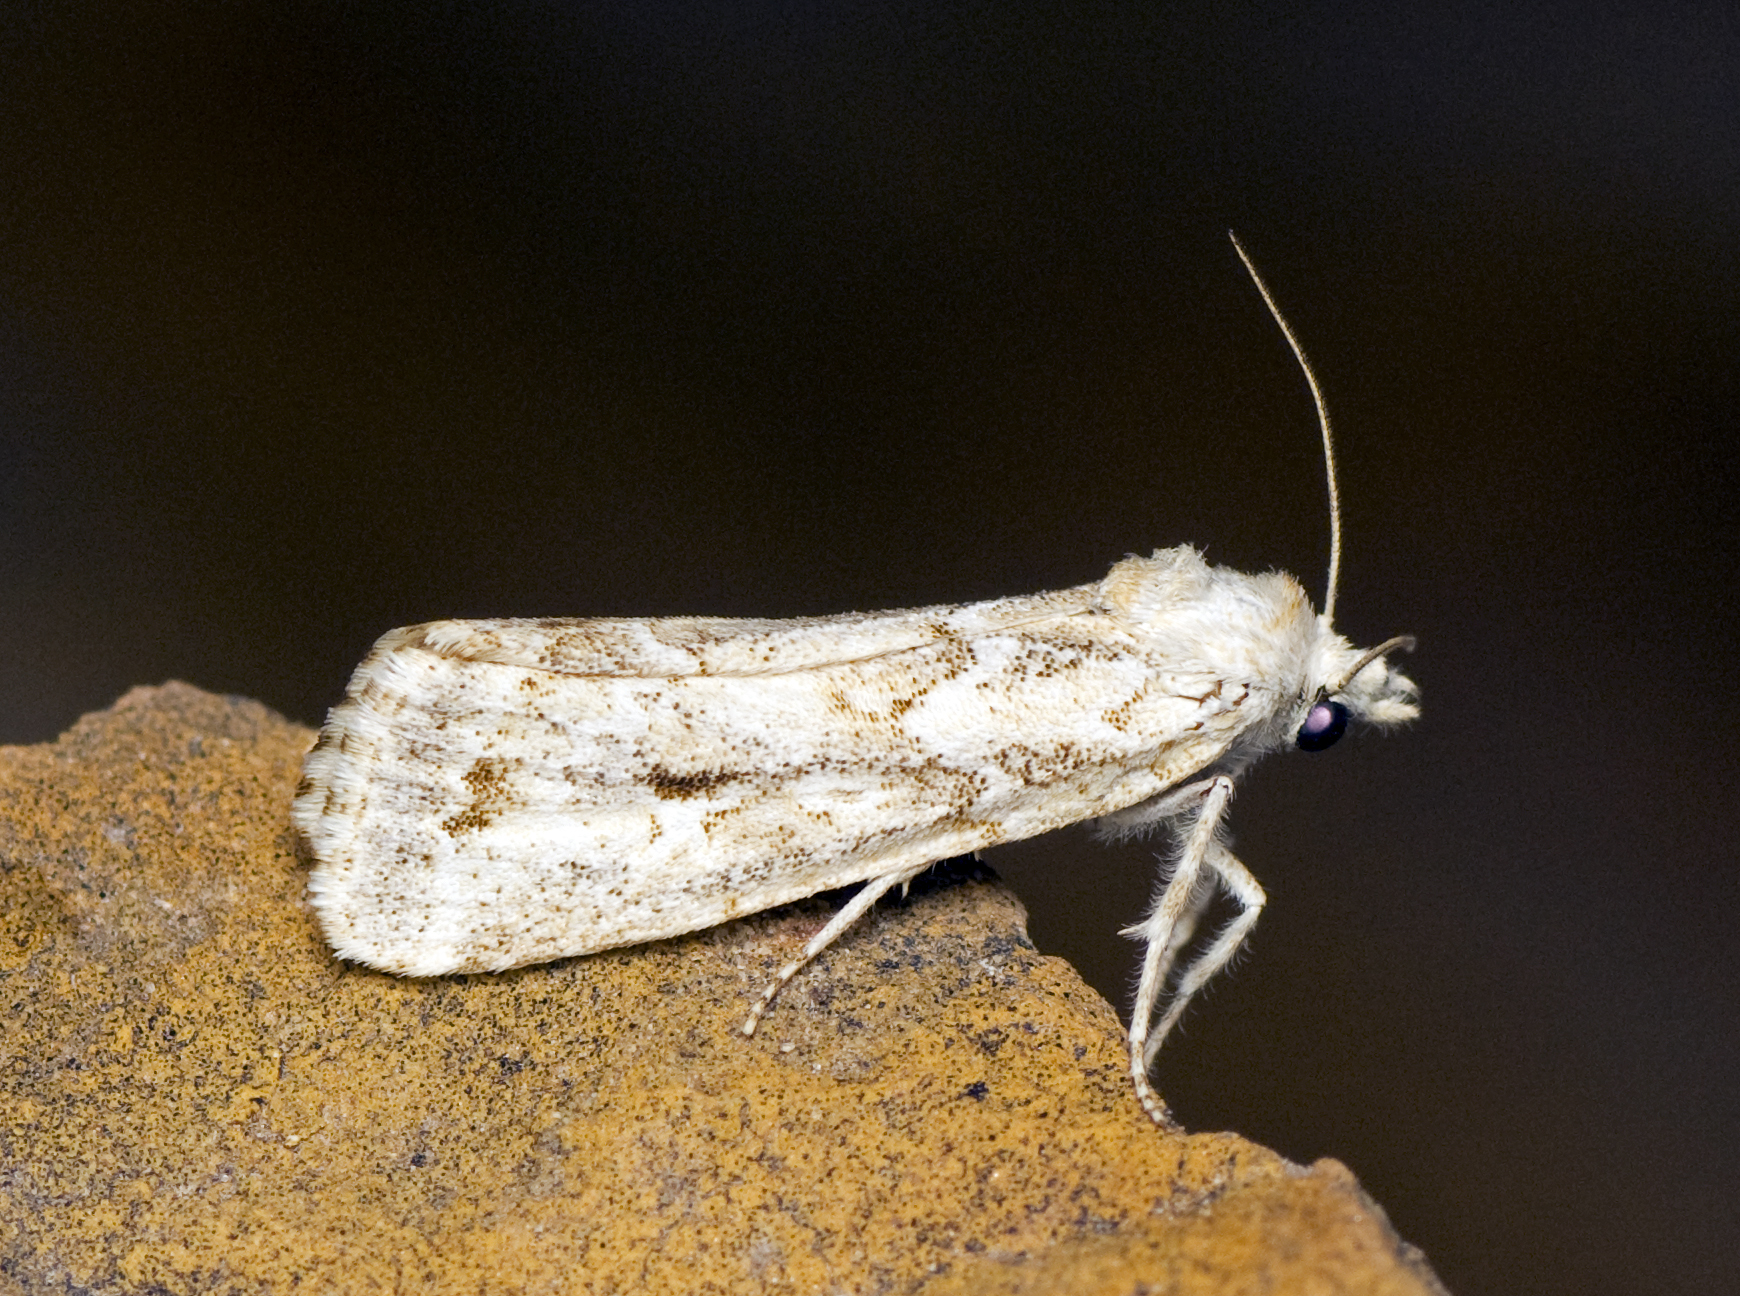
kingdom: Animalia
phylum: Arthropoda
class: Insecta
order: Lepidoptera
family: Noctuidae
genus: Eremochroa
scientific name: Eremochroa alphitias
